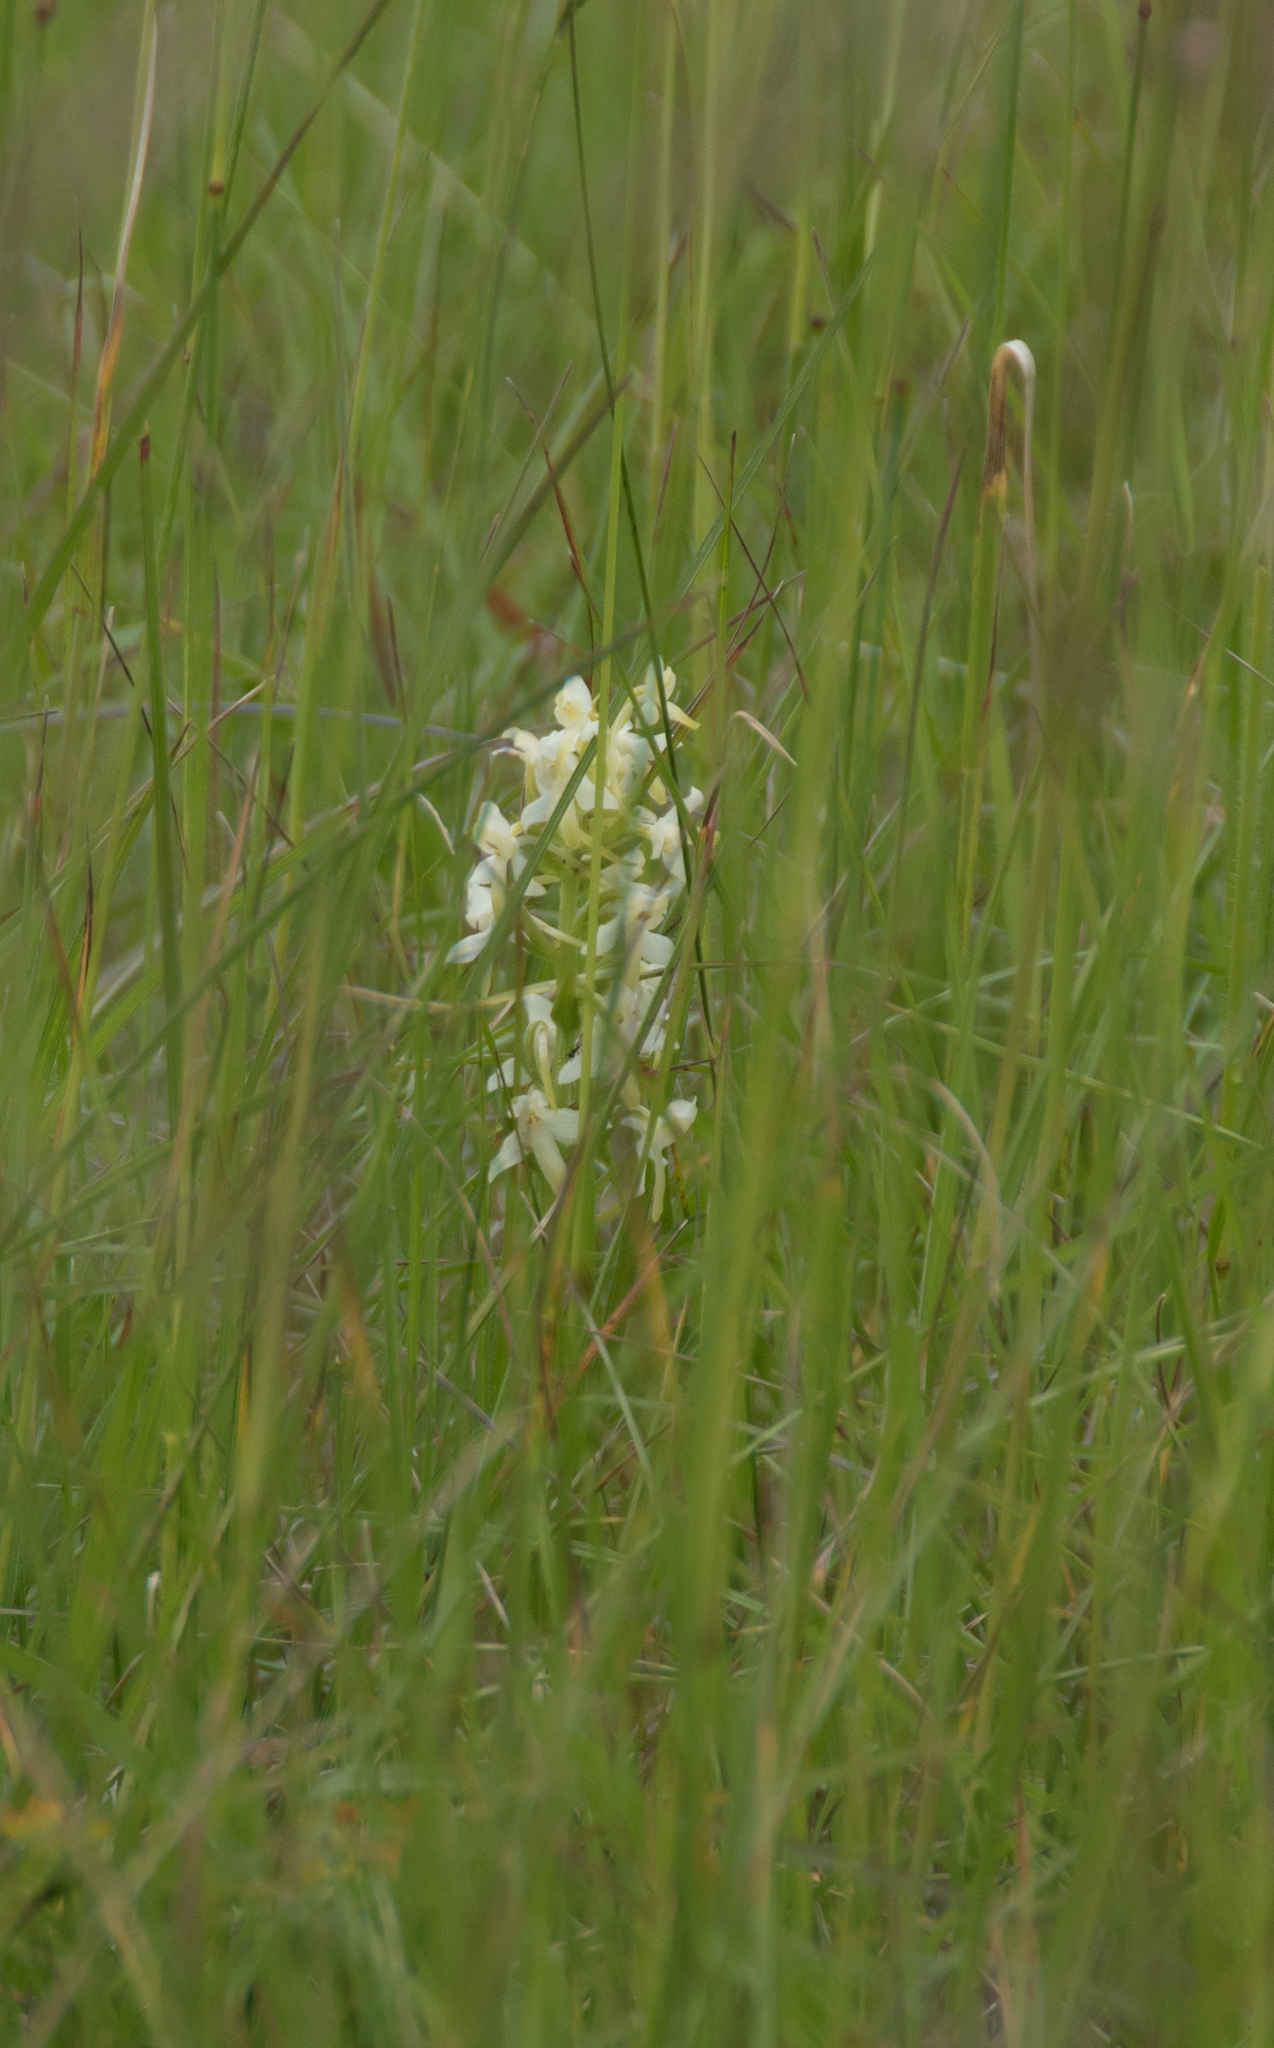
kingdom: Plantae
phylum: Tracheophyta
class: Liliopsida
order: Asparagales
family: Orchidaceae
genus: Platanthera
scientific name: Platanthera bifolia
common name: Lesser butterfly-orchid
